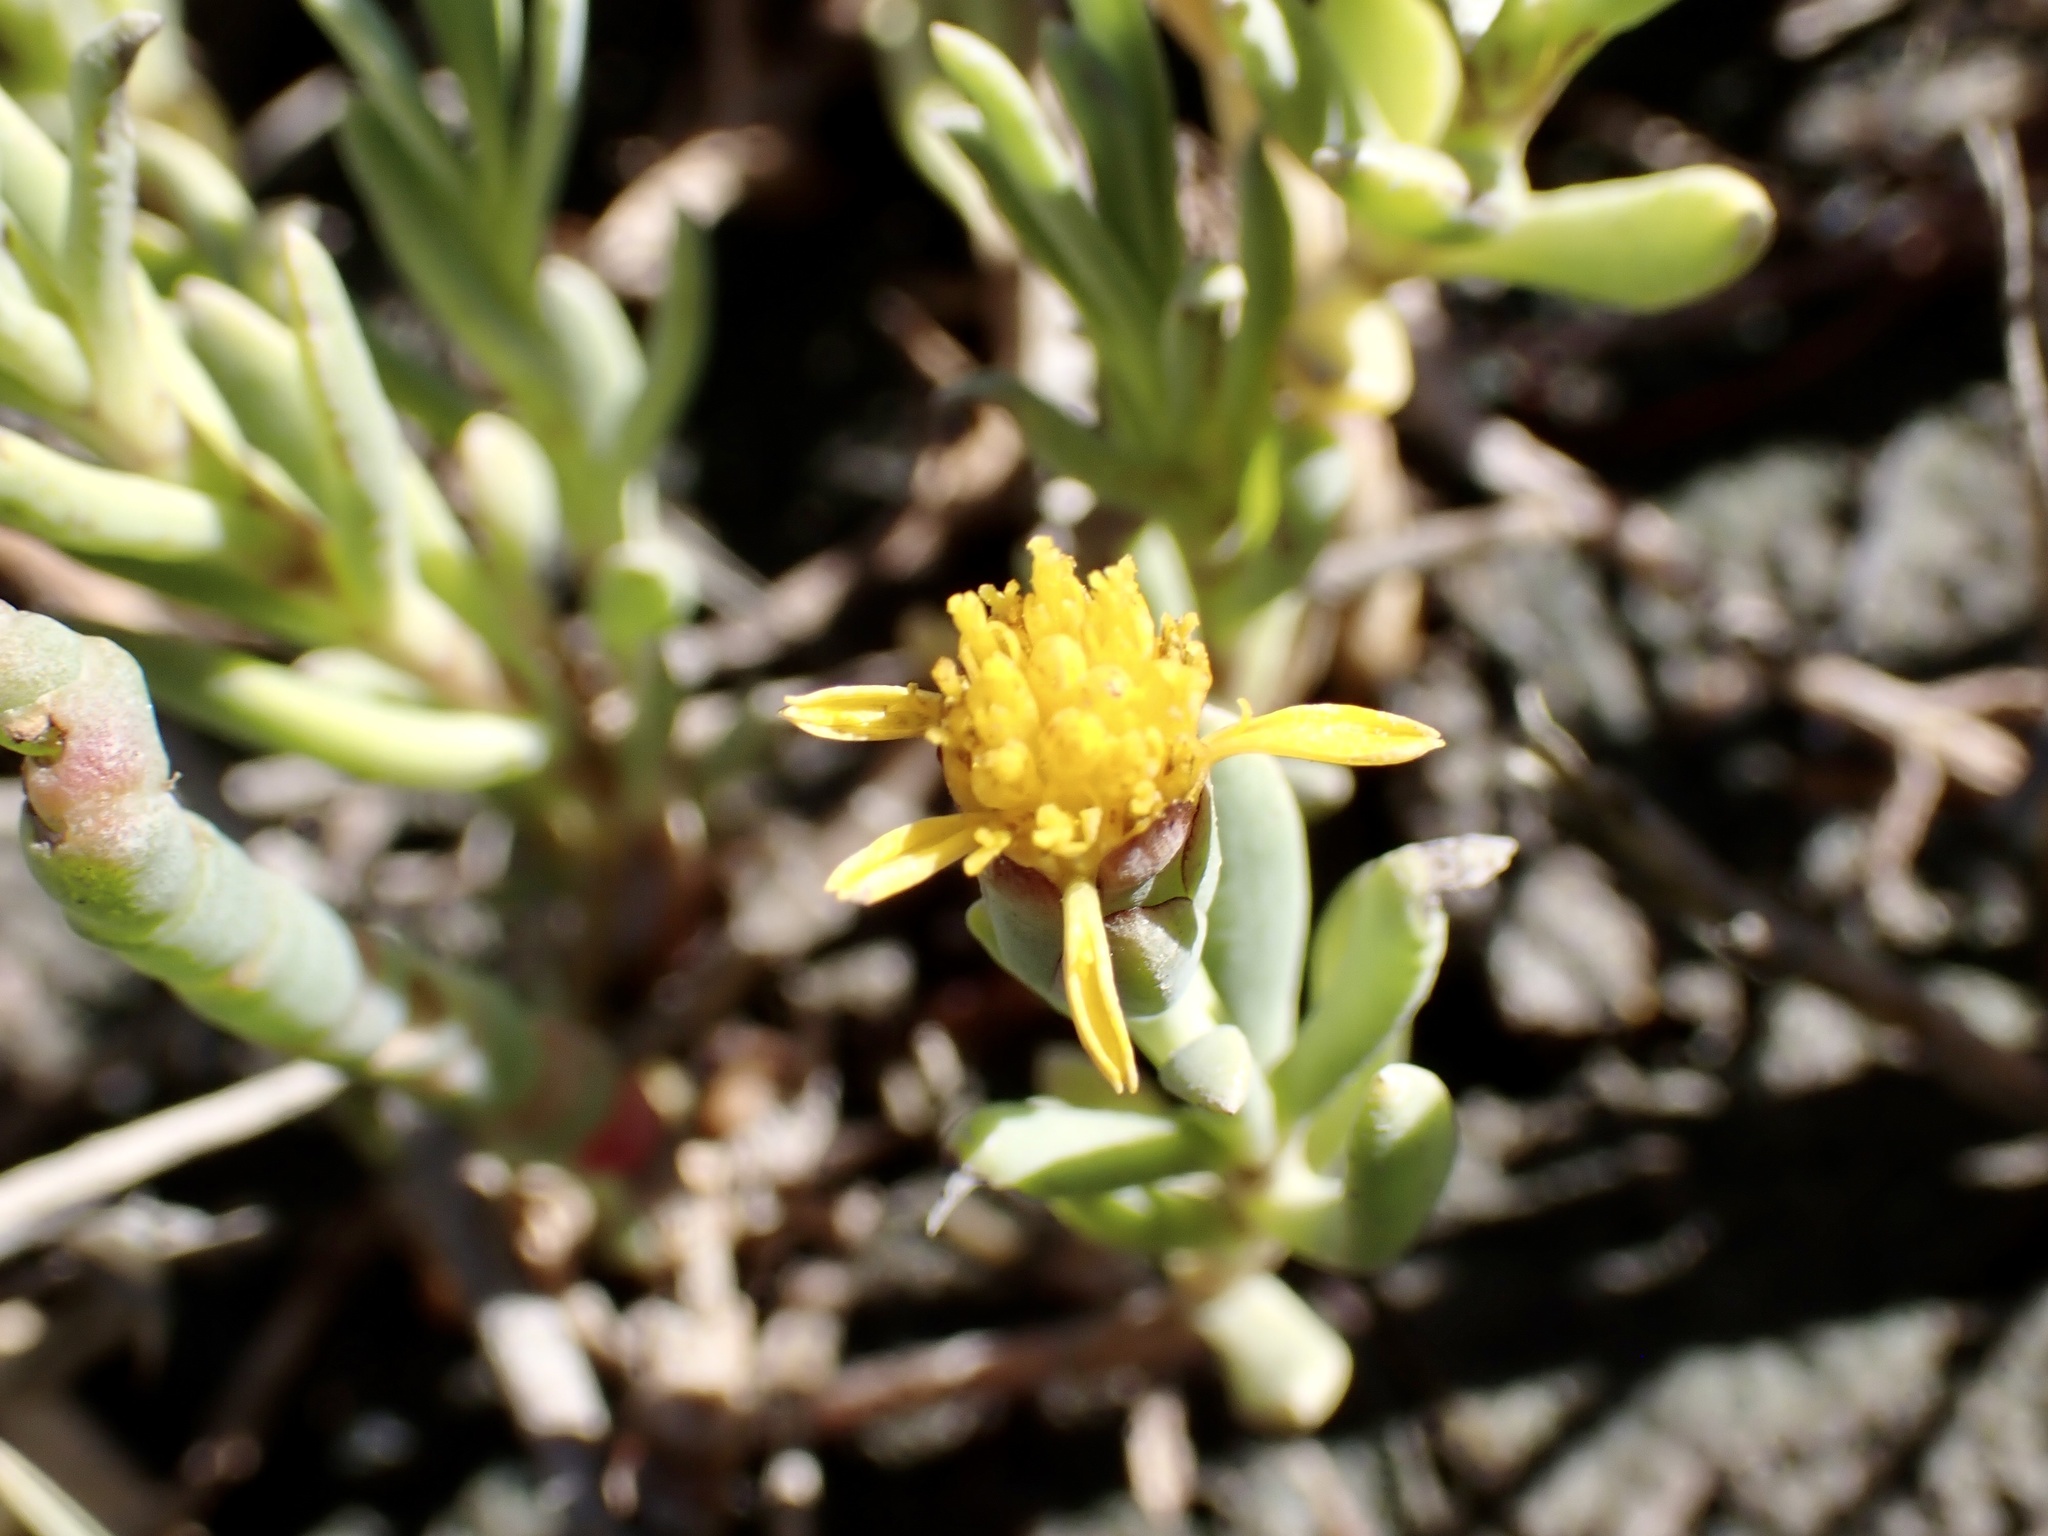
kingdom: Plantae
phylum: Tracheophyta
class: Magnoliopsida
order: Asterales
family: Asteraceae
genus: Jaumea
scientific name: Jaumea carnosa
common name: Fleshy jaumea
